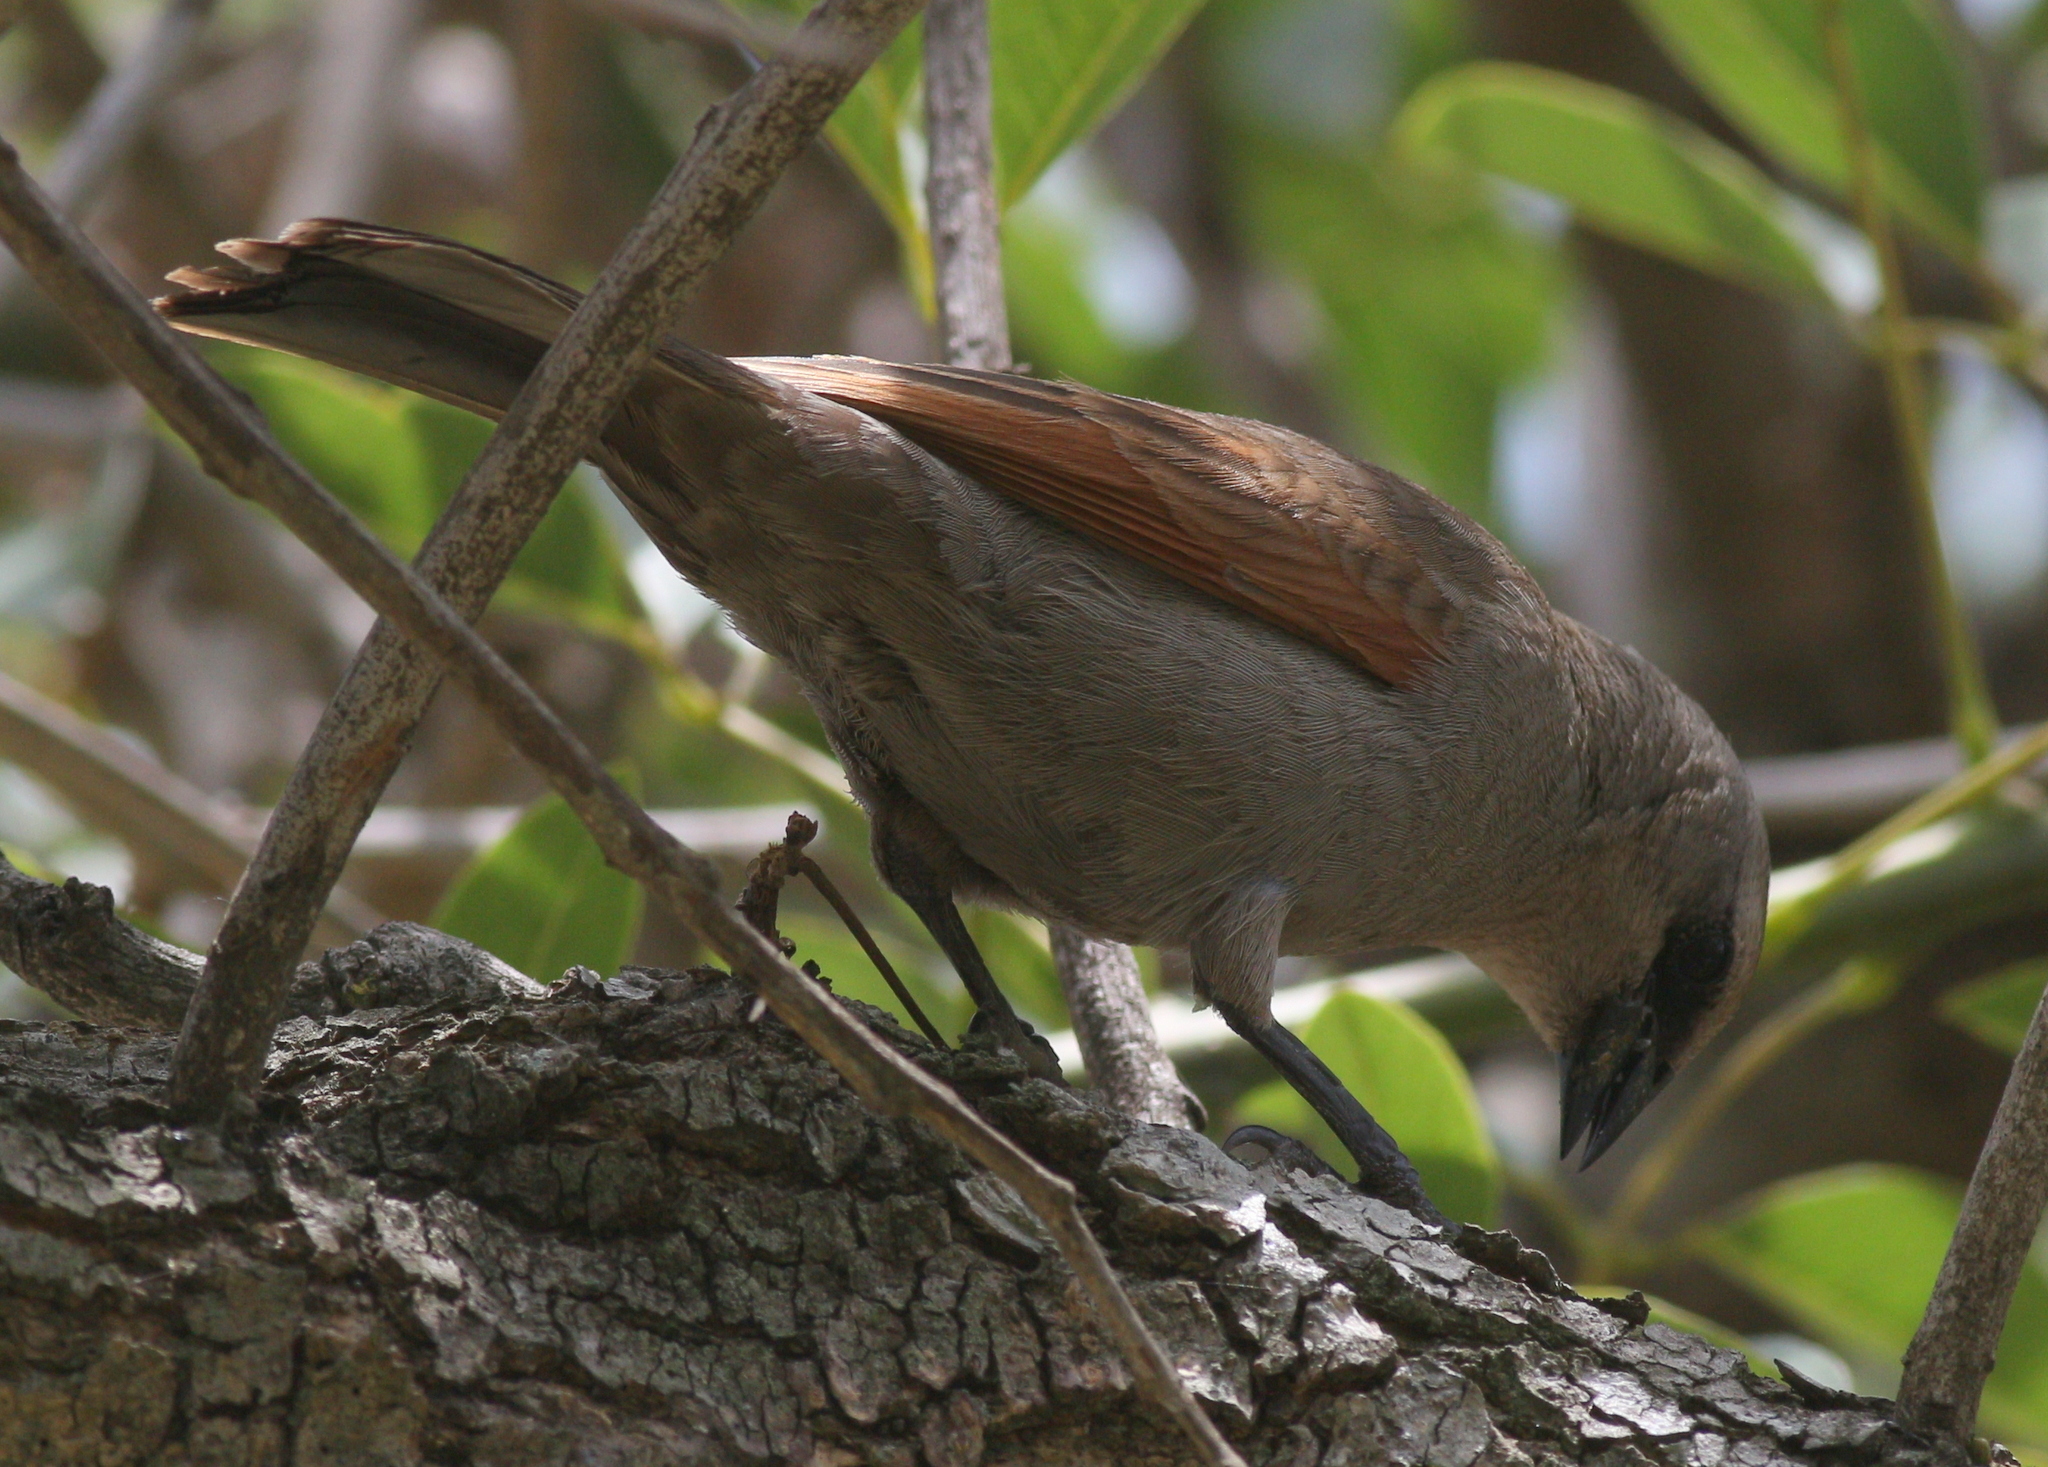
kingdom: Animalia
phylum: Chordata
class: Aves
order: Passeriformes
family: Icteridae
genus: Agelaioides
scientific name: Agelaioides badius
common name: Baywing
